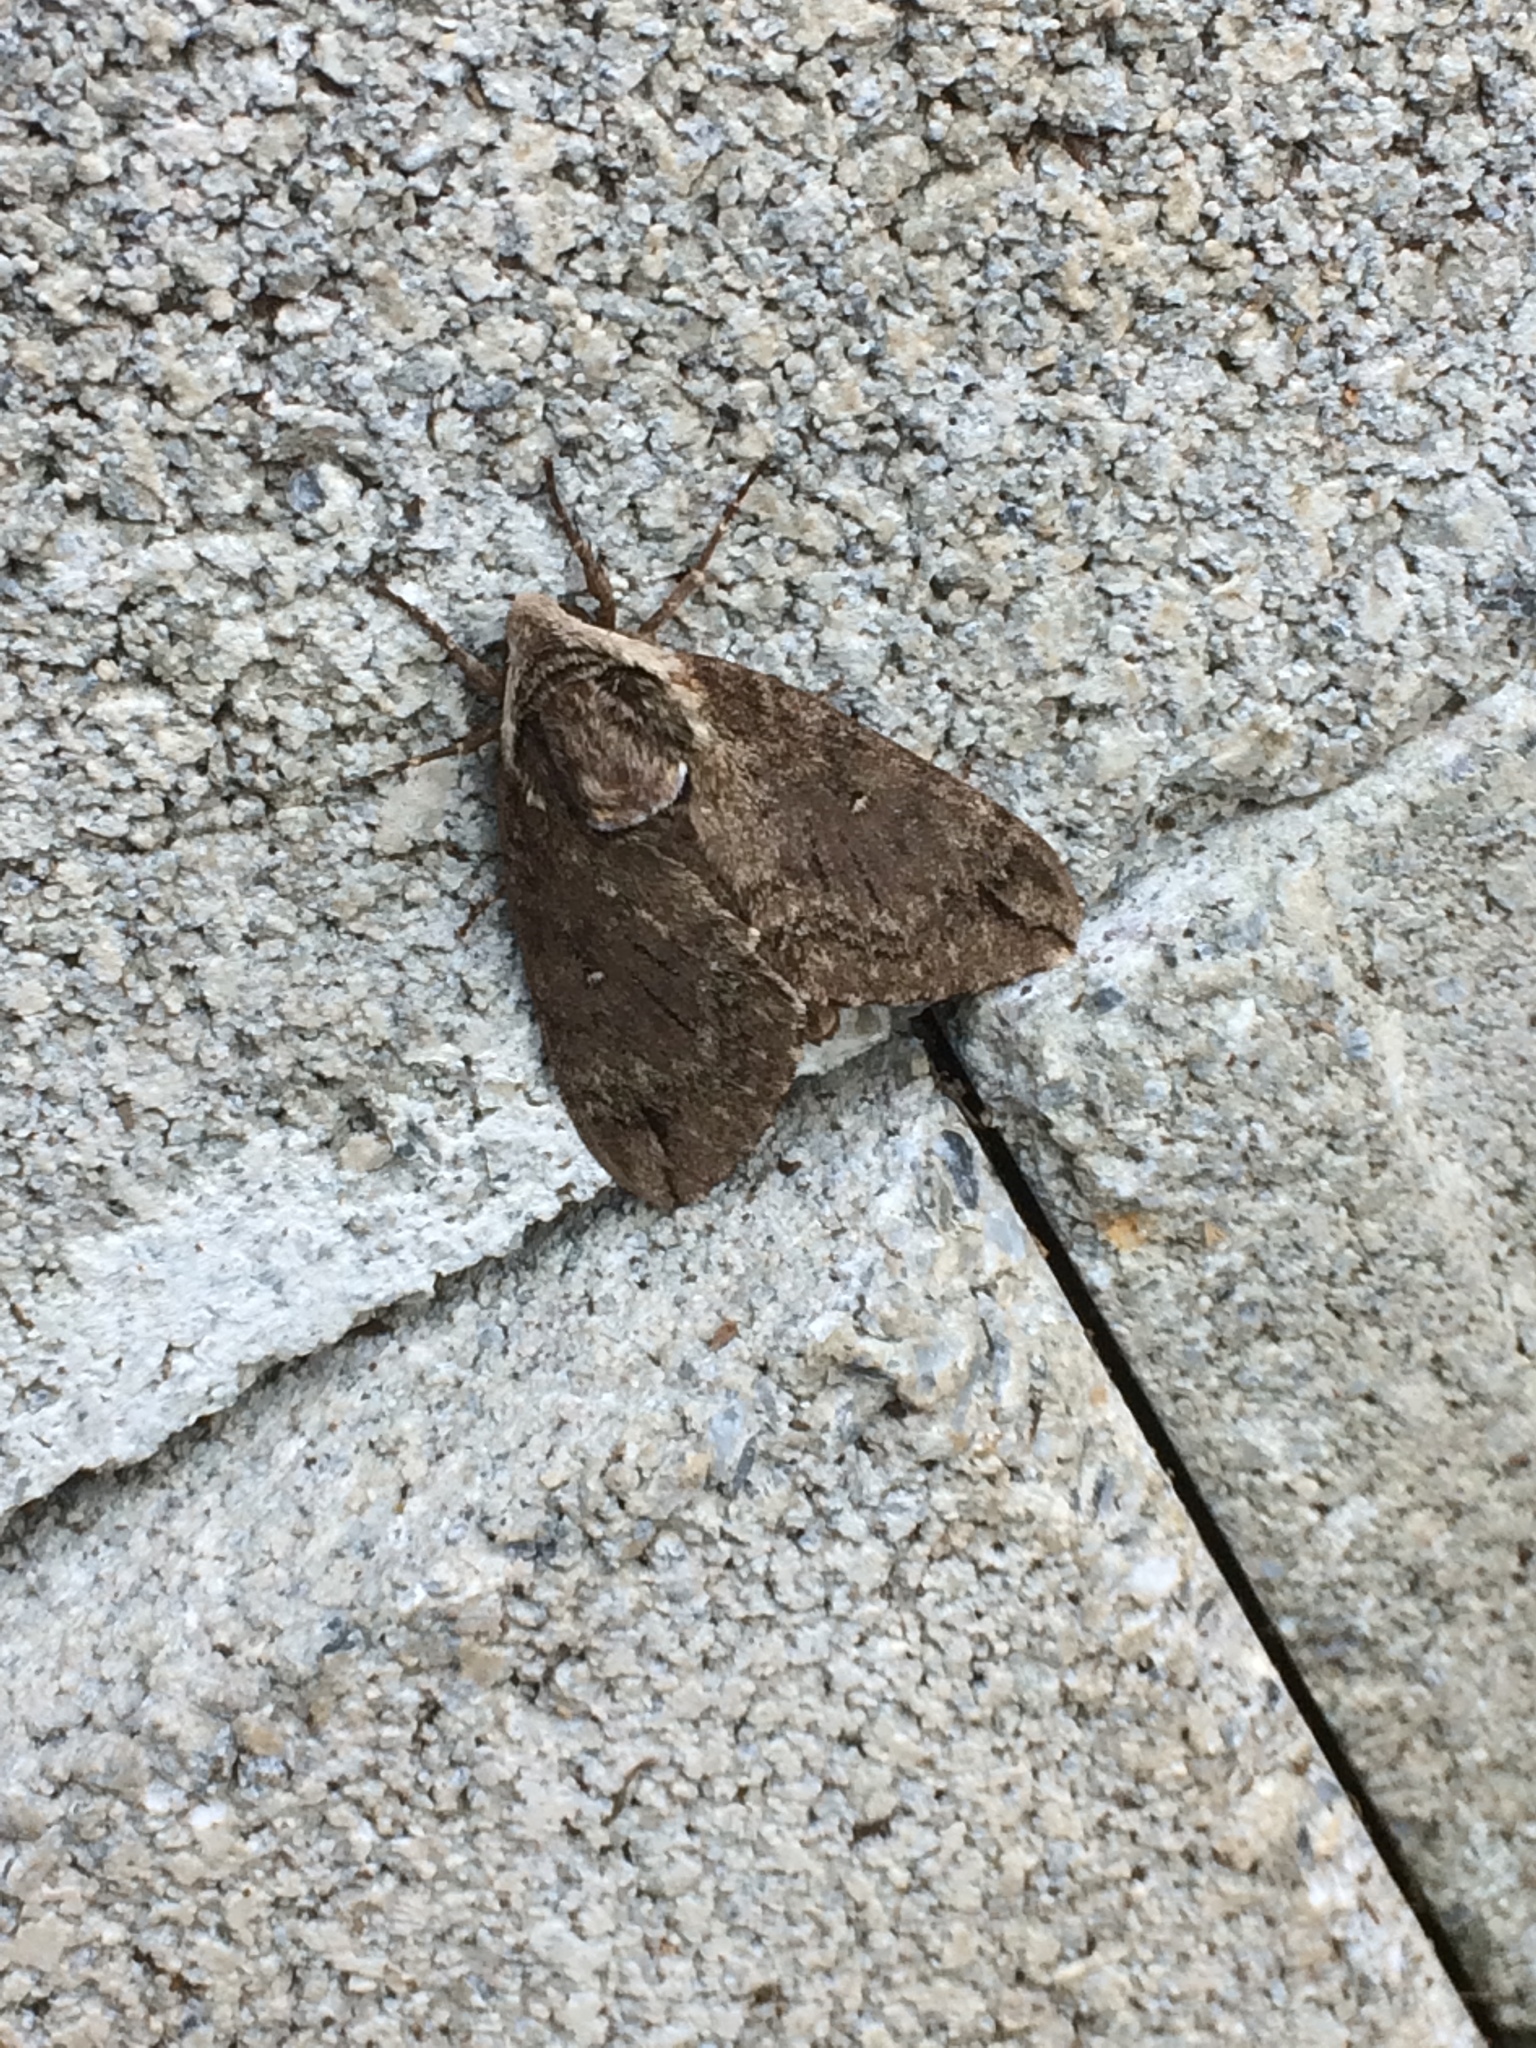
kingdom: Animalia
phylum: Arthropoda
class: Insecta
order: Lepidoptera
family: Sphingidae
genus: Ceratomia
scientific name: Ceratomia catalpae
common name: Catalpa hornworm
